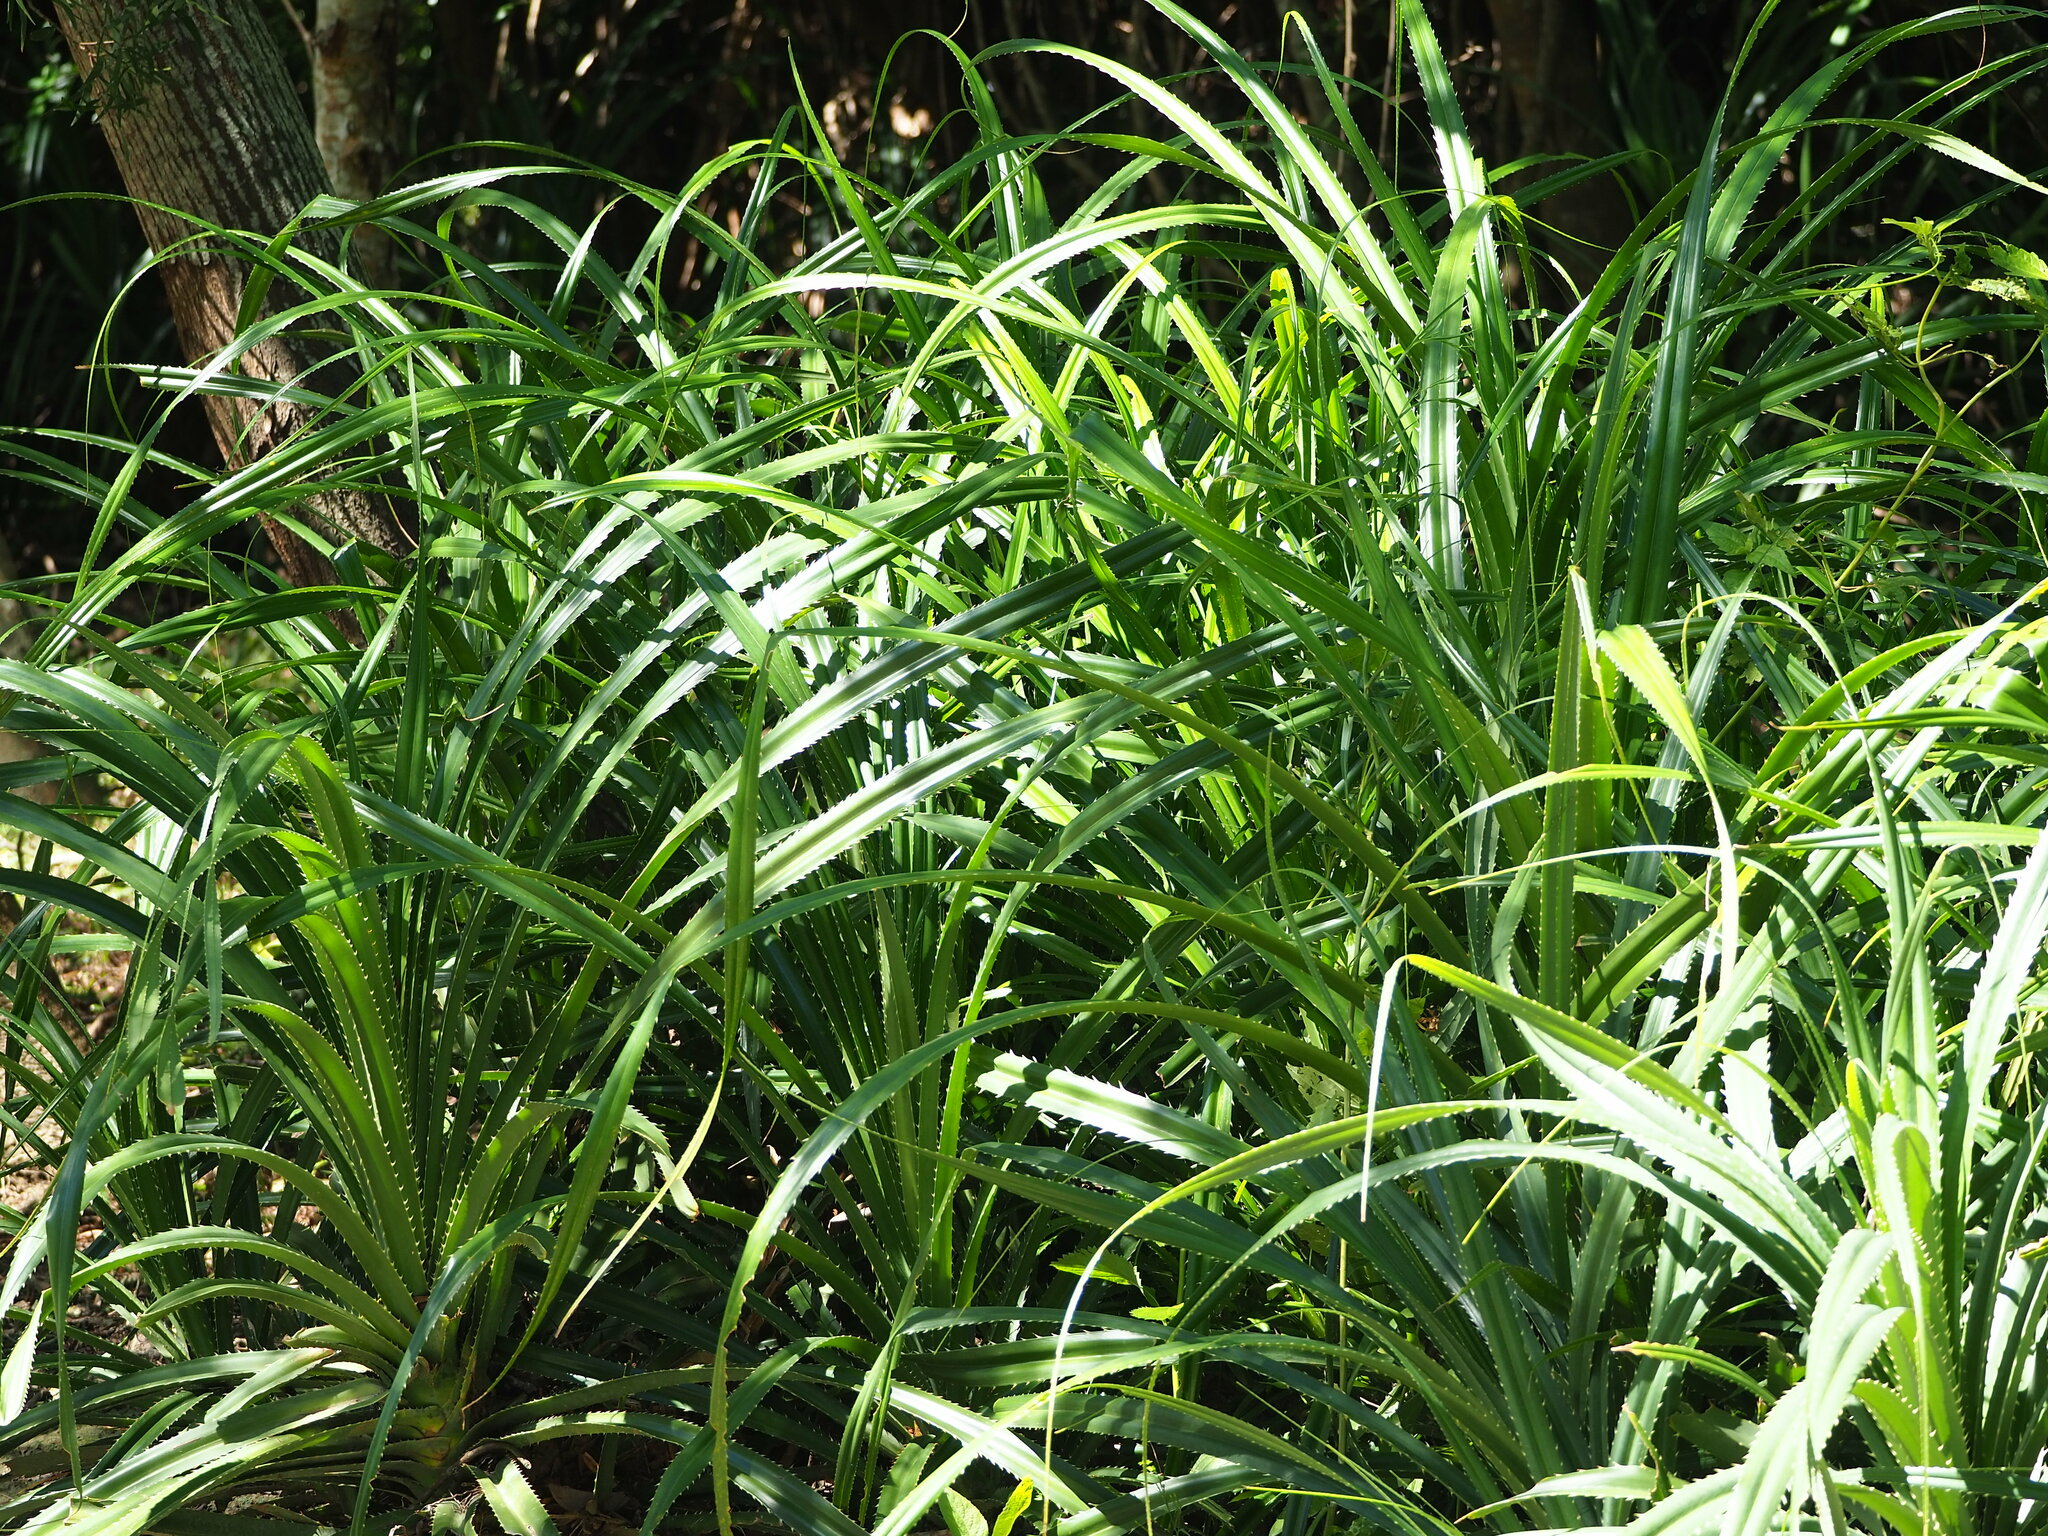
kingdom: Plantae
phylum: Tracheophyta
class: Liliopsida
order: Pandanales
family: Pandanaceae
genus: Pandanus
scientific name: Pandanus odorifer
